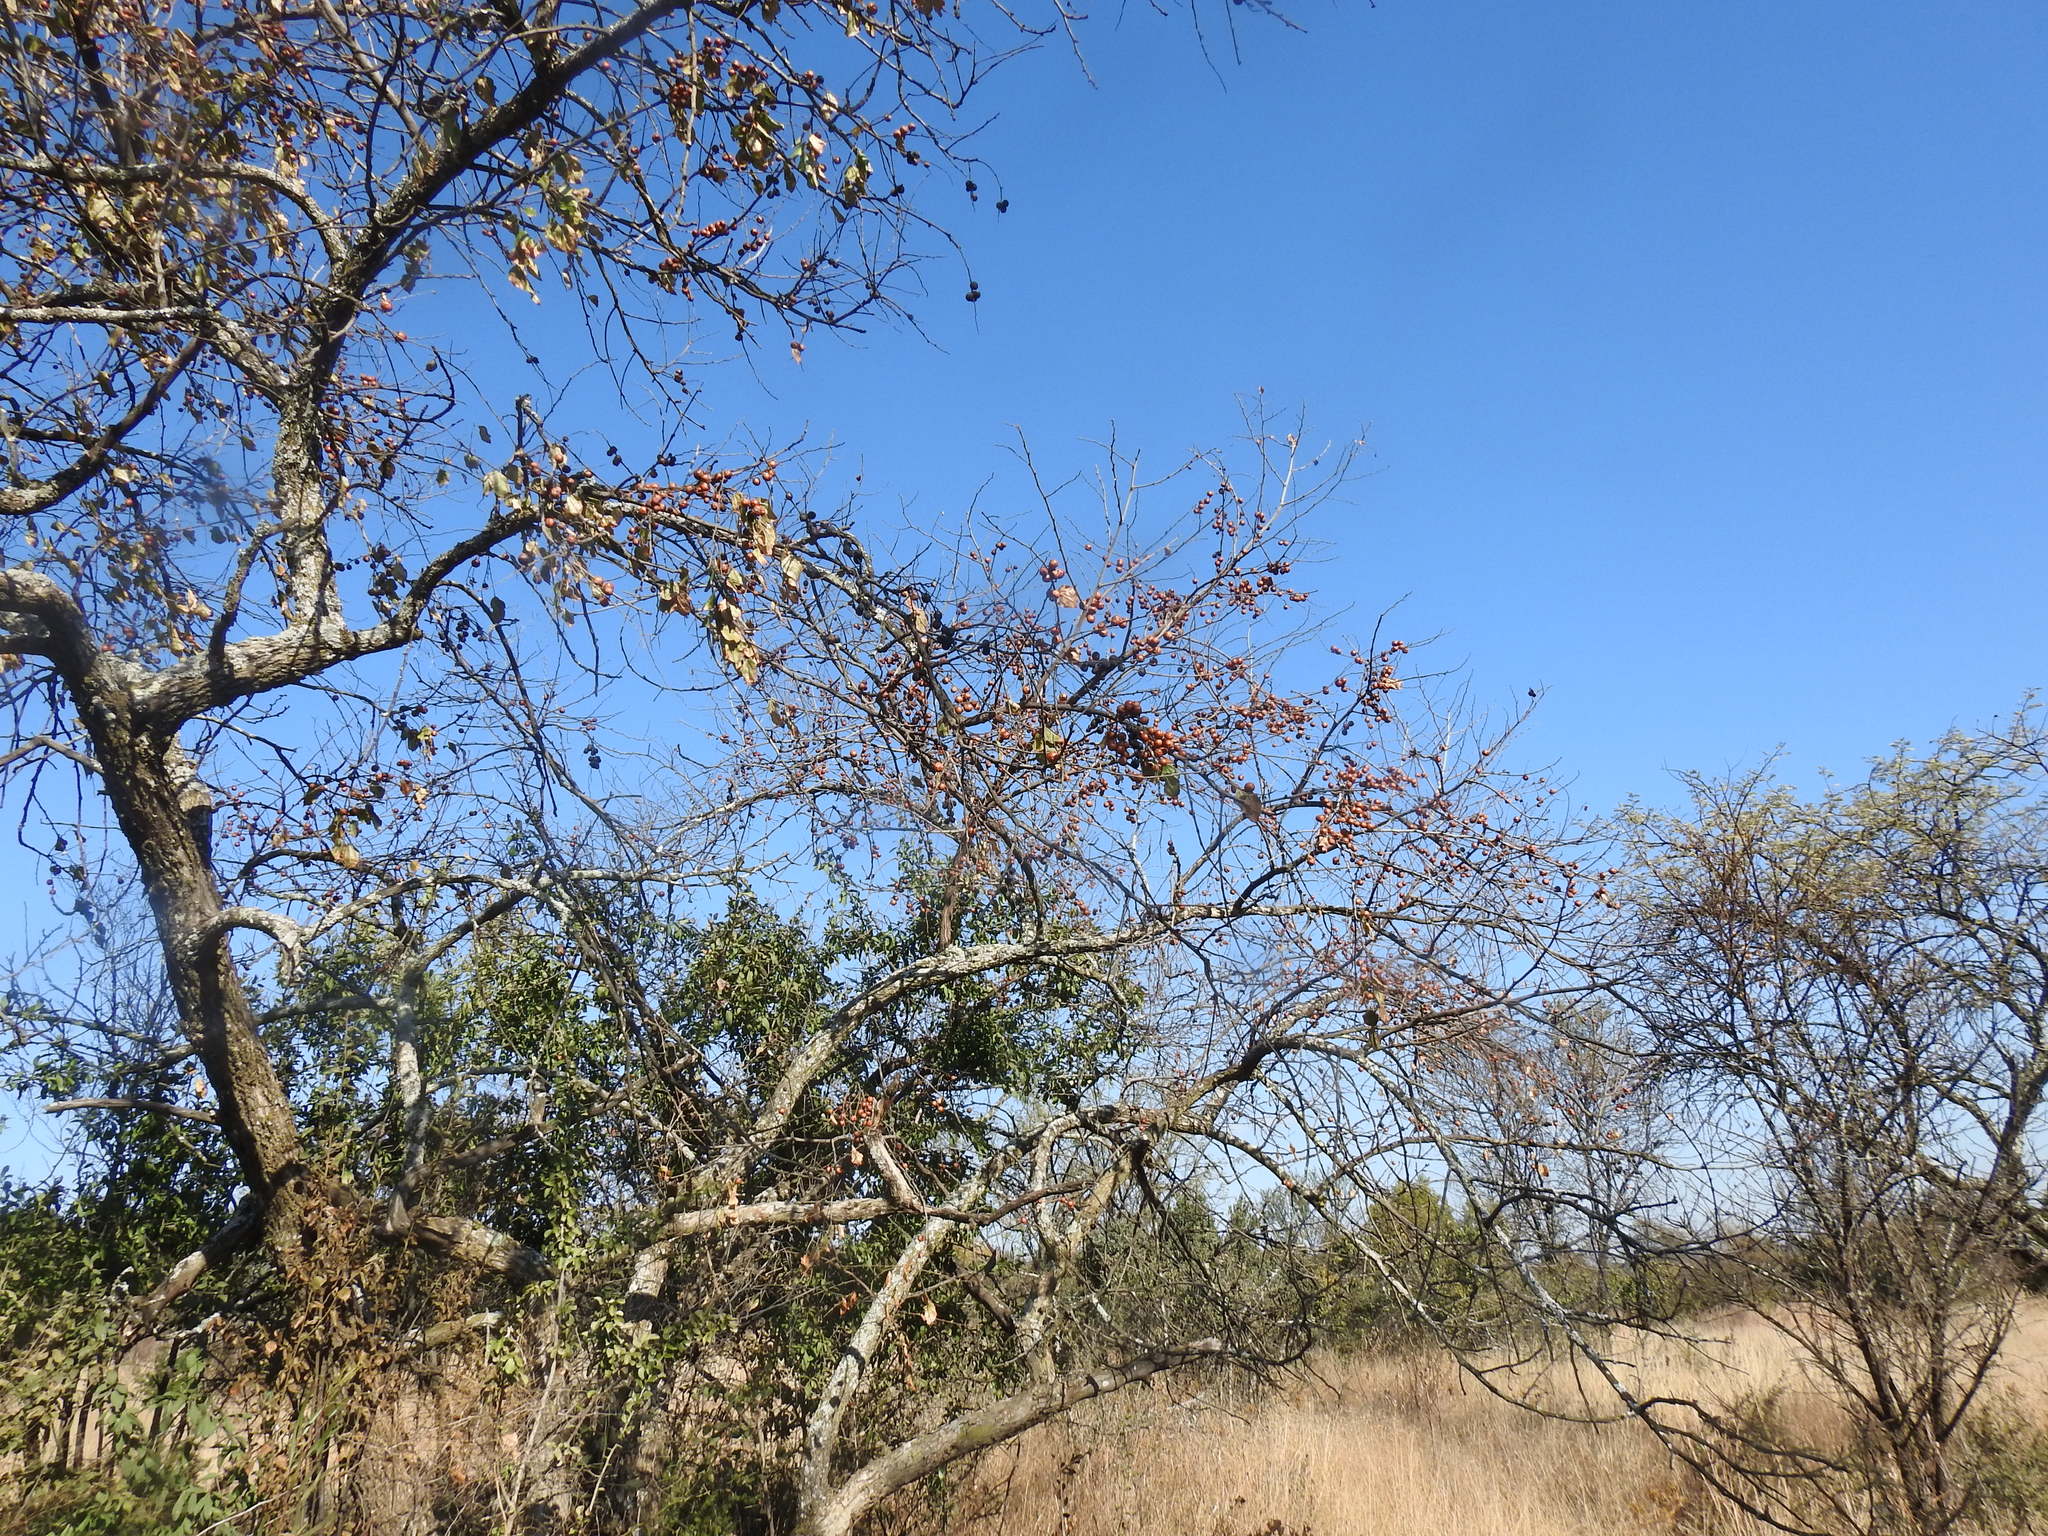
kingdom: Plantae
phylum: Tracheophyta
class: Magnoliopsida
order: Rosales
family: Rhamnaceae
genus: Ziziphus
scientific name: Ziziphus mucronata
